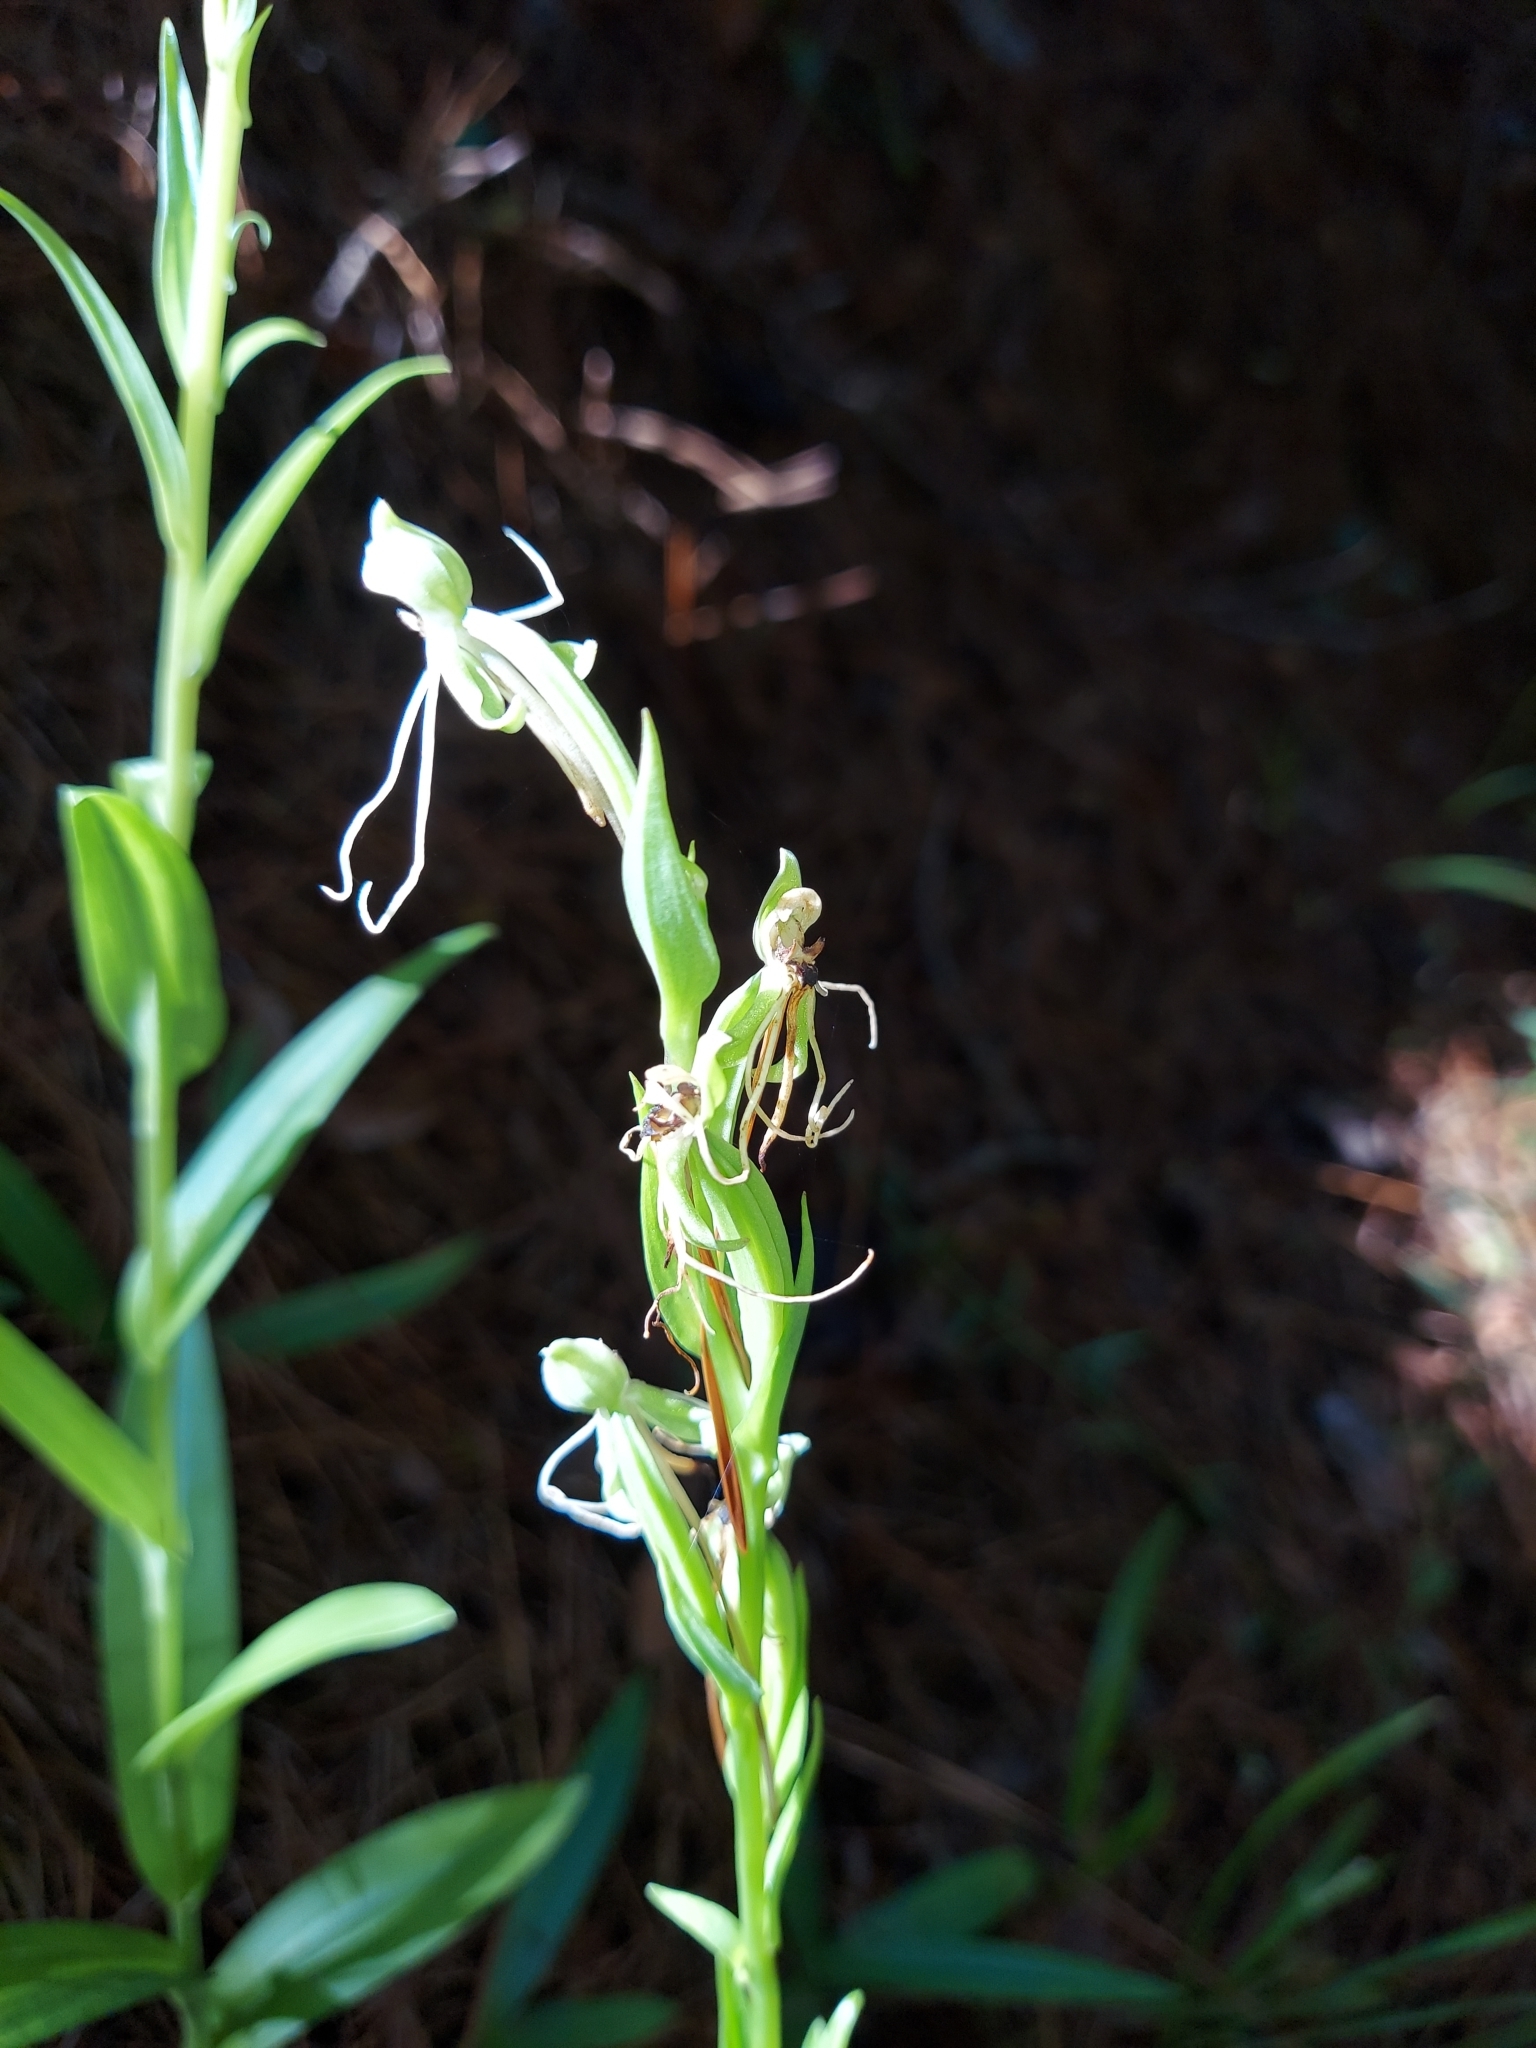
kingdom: Plantae
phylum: Tracheophyta
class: Liliopsida
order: Asparagales
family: Orchidaceae
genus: Habenaria
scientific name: Habenaria quinqueseta
